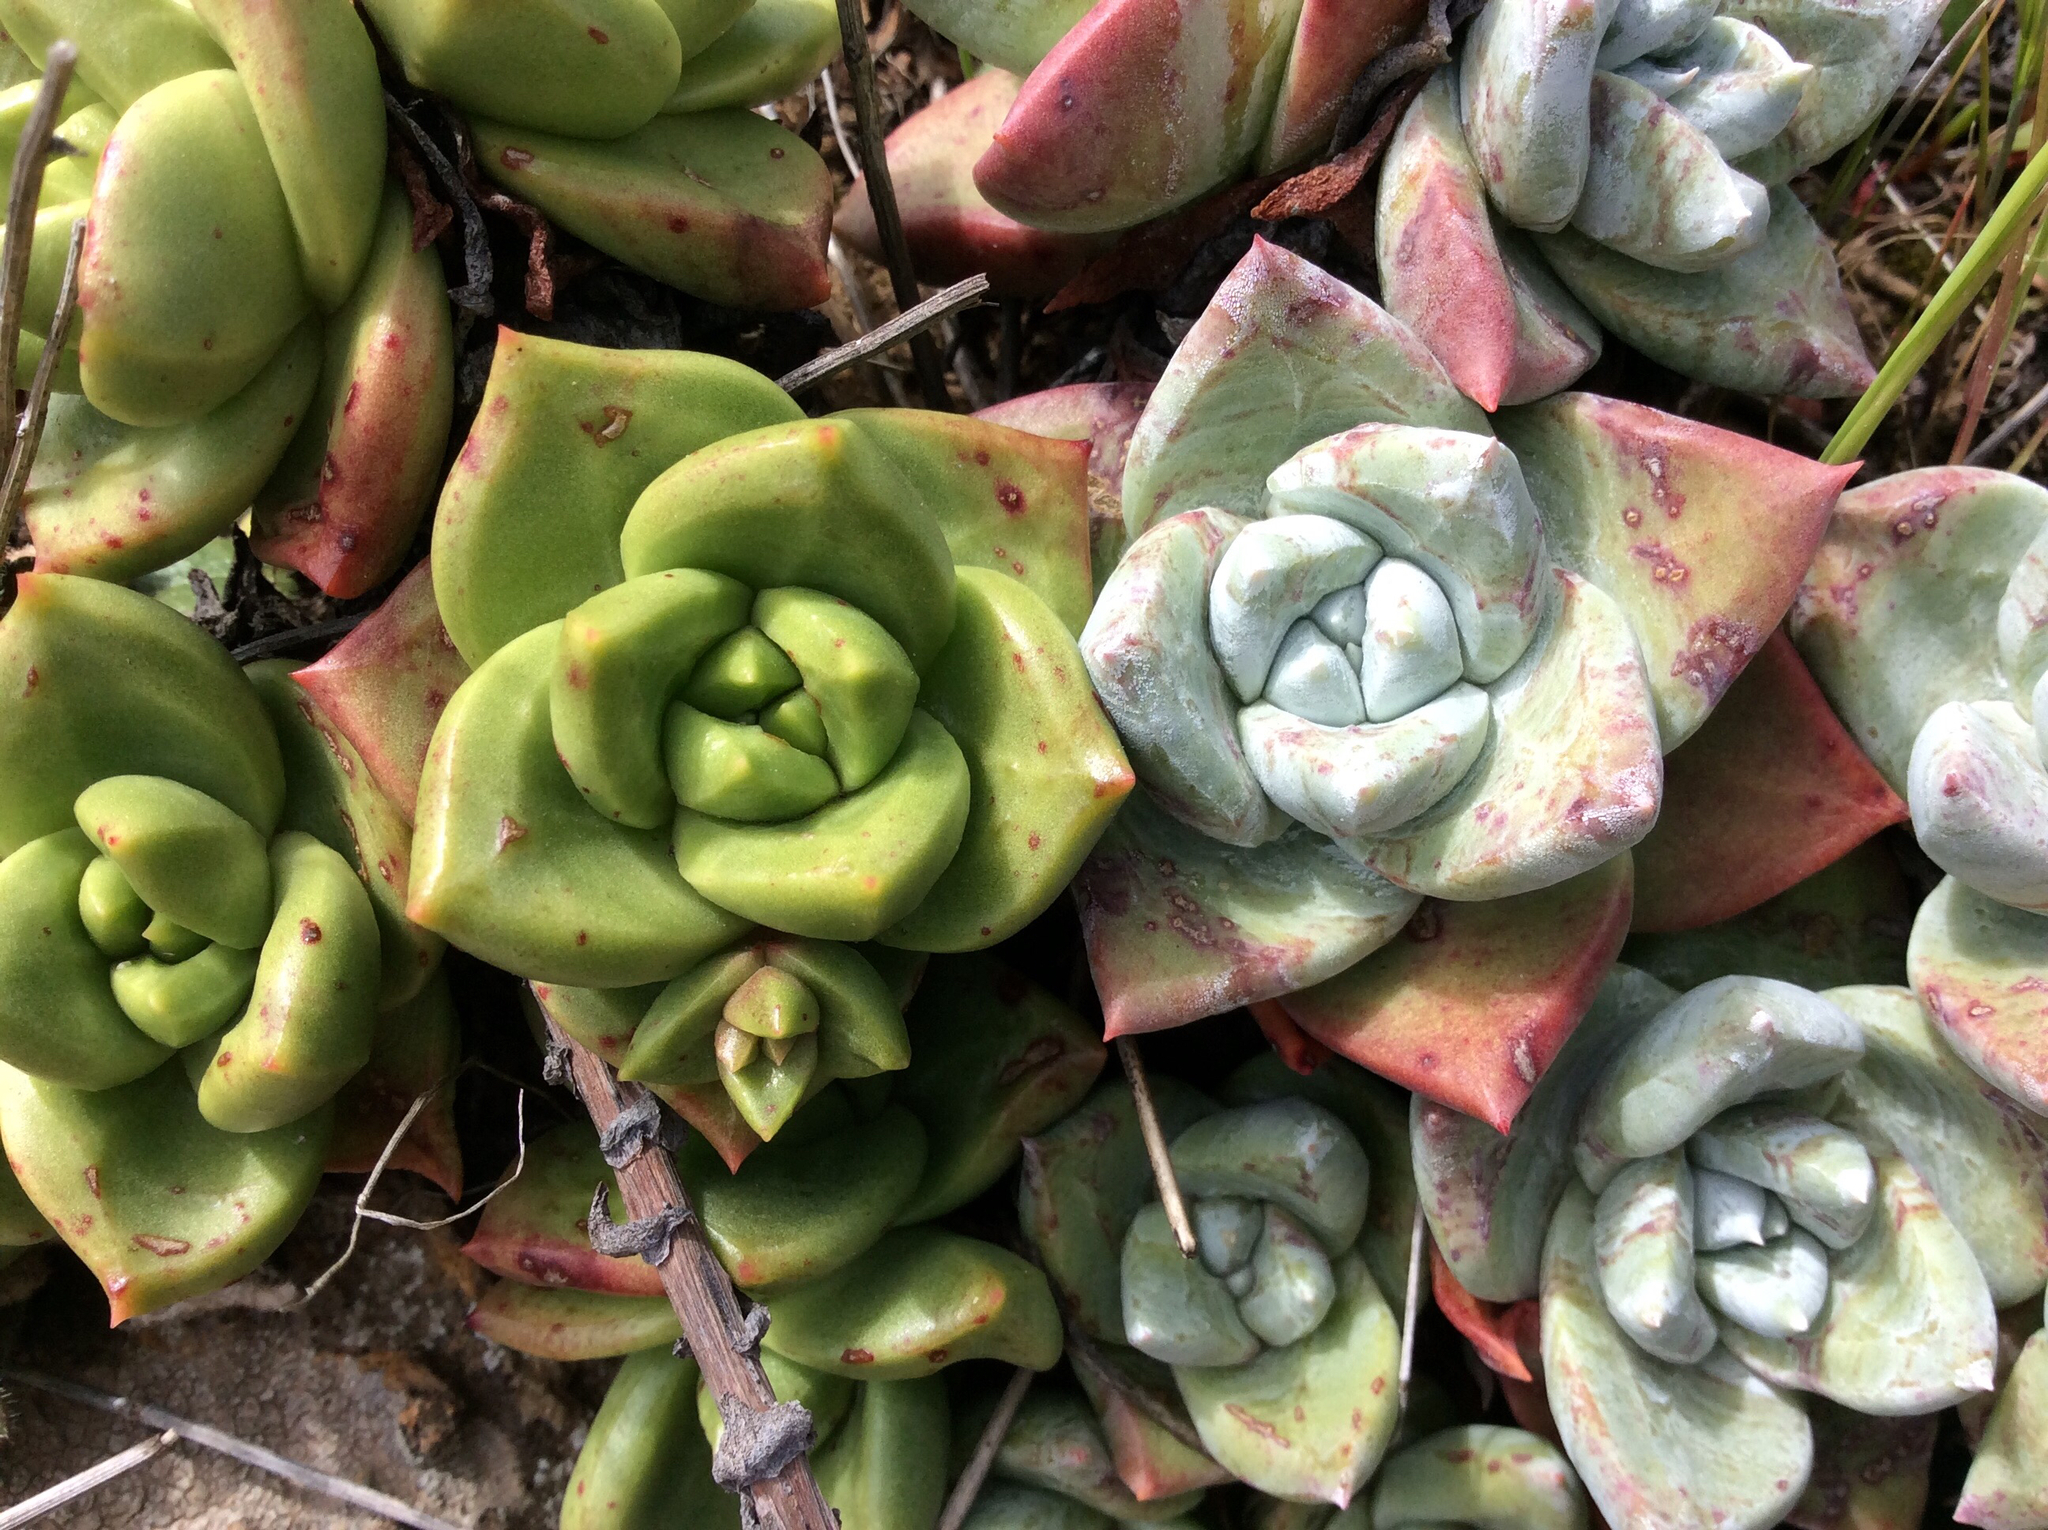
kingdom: Plantae
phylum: Tracheophyta
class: Magnoliopsida
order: Saxifragales
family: Crassulaceae
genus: Dudleya
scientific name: Dudleya farinosa
